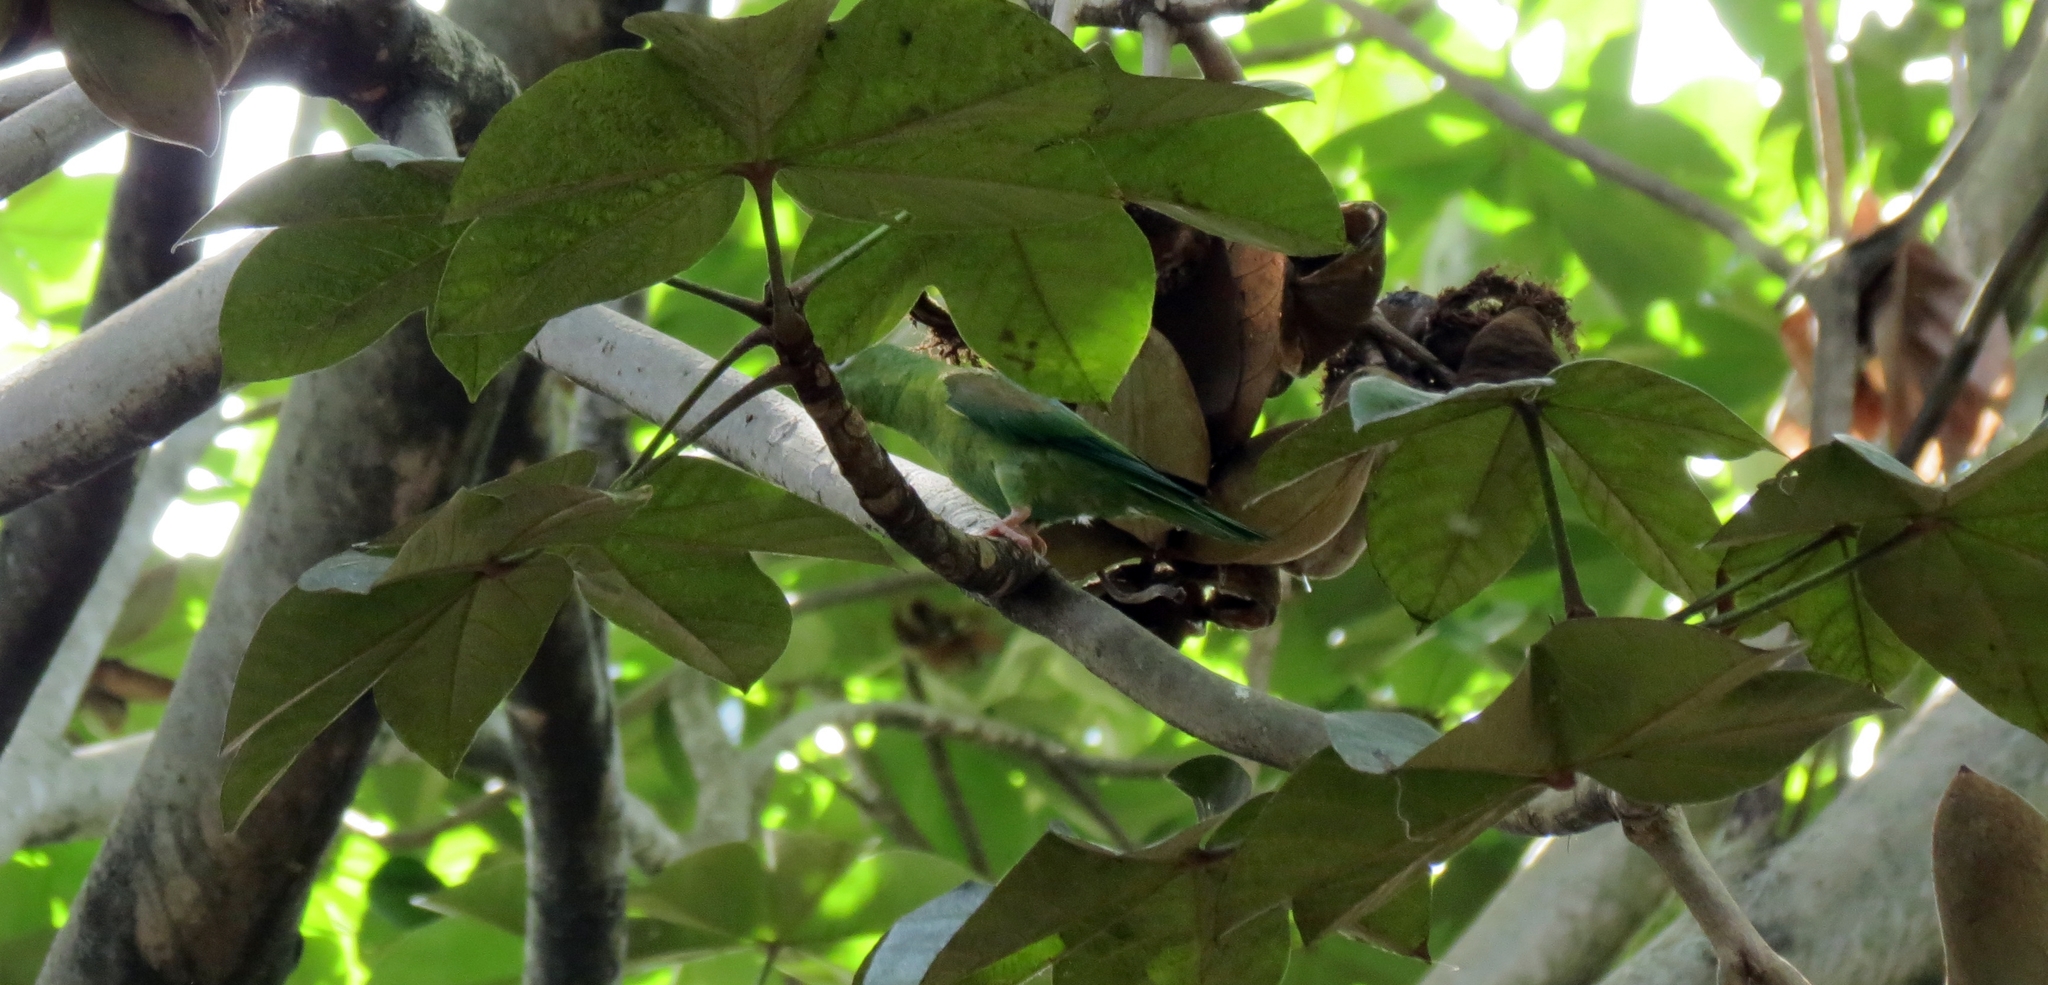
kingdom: Animalia
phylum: Chordata
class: Aves
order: Psittaciformes
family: Psittacidae
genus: Brotogeris
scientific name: Brotogeris jugularis
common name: Orange-chinned parakeet
